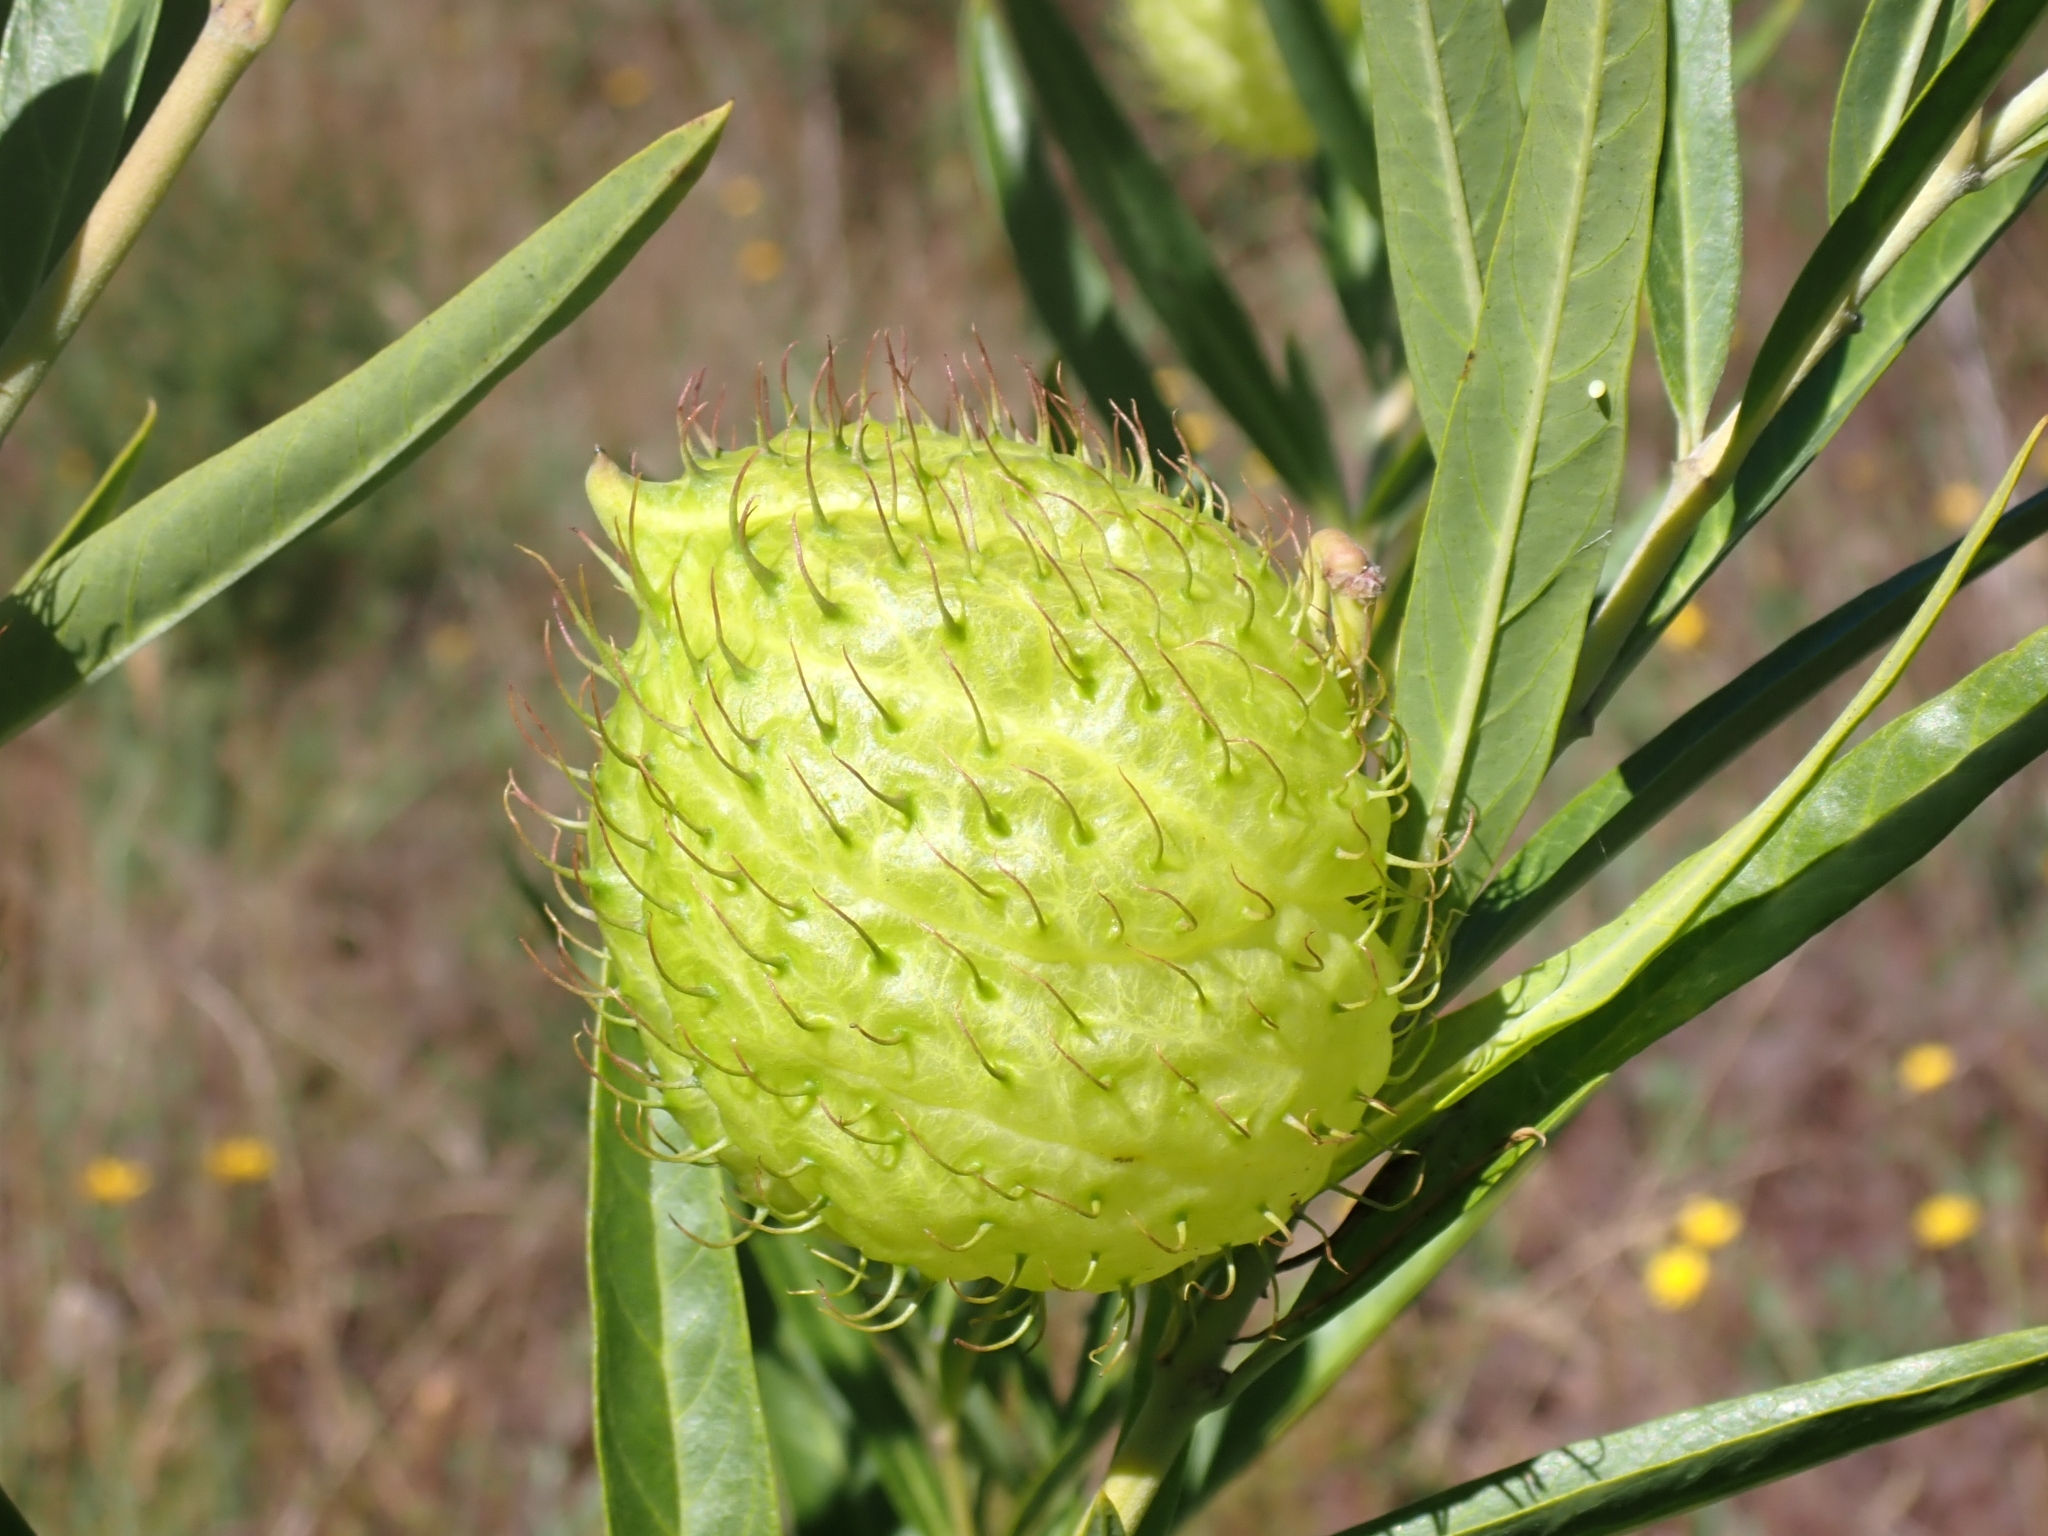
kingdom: Plantae
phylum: Tracheophyta
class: Magnoliopsida
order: Gentianales
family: Apocynaceae
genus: Gomphocarpus
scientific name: Gomphocarpus physocarpus
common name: Balloon cotton bush
